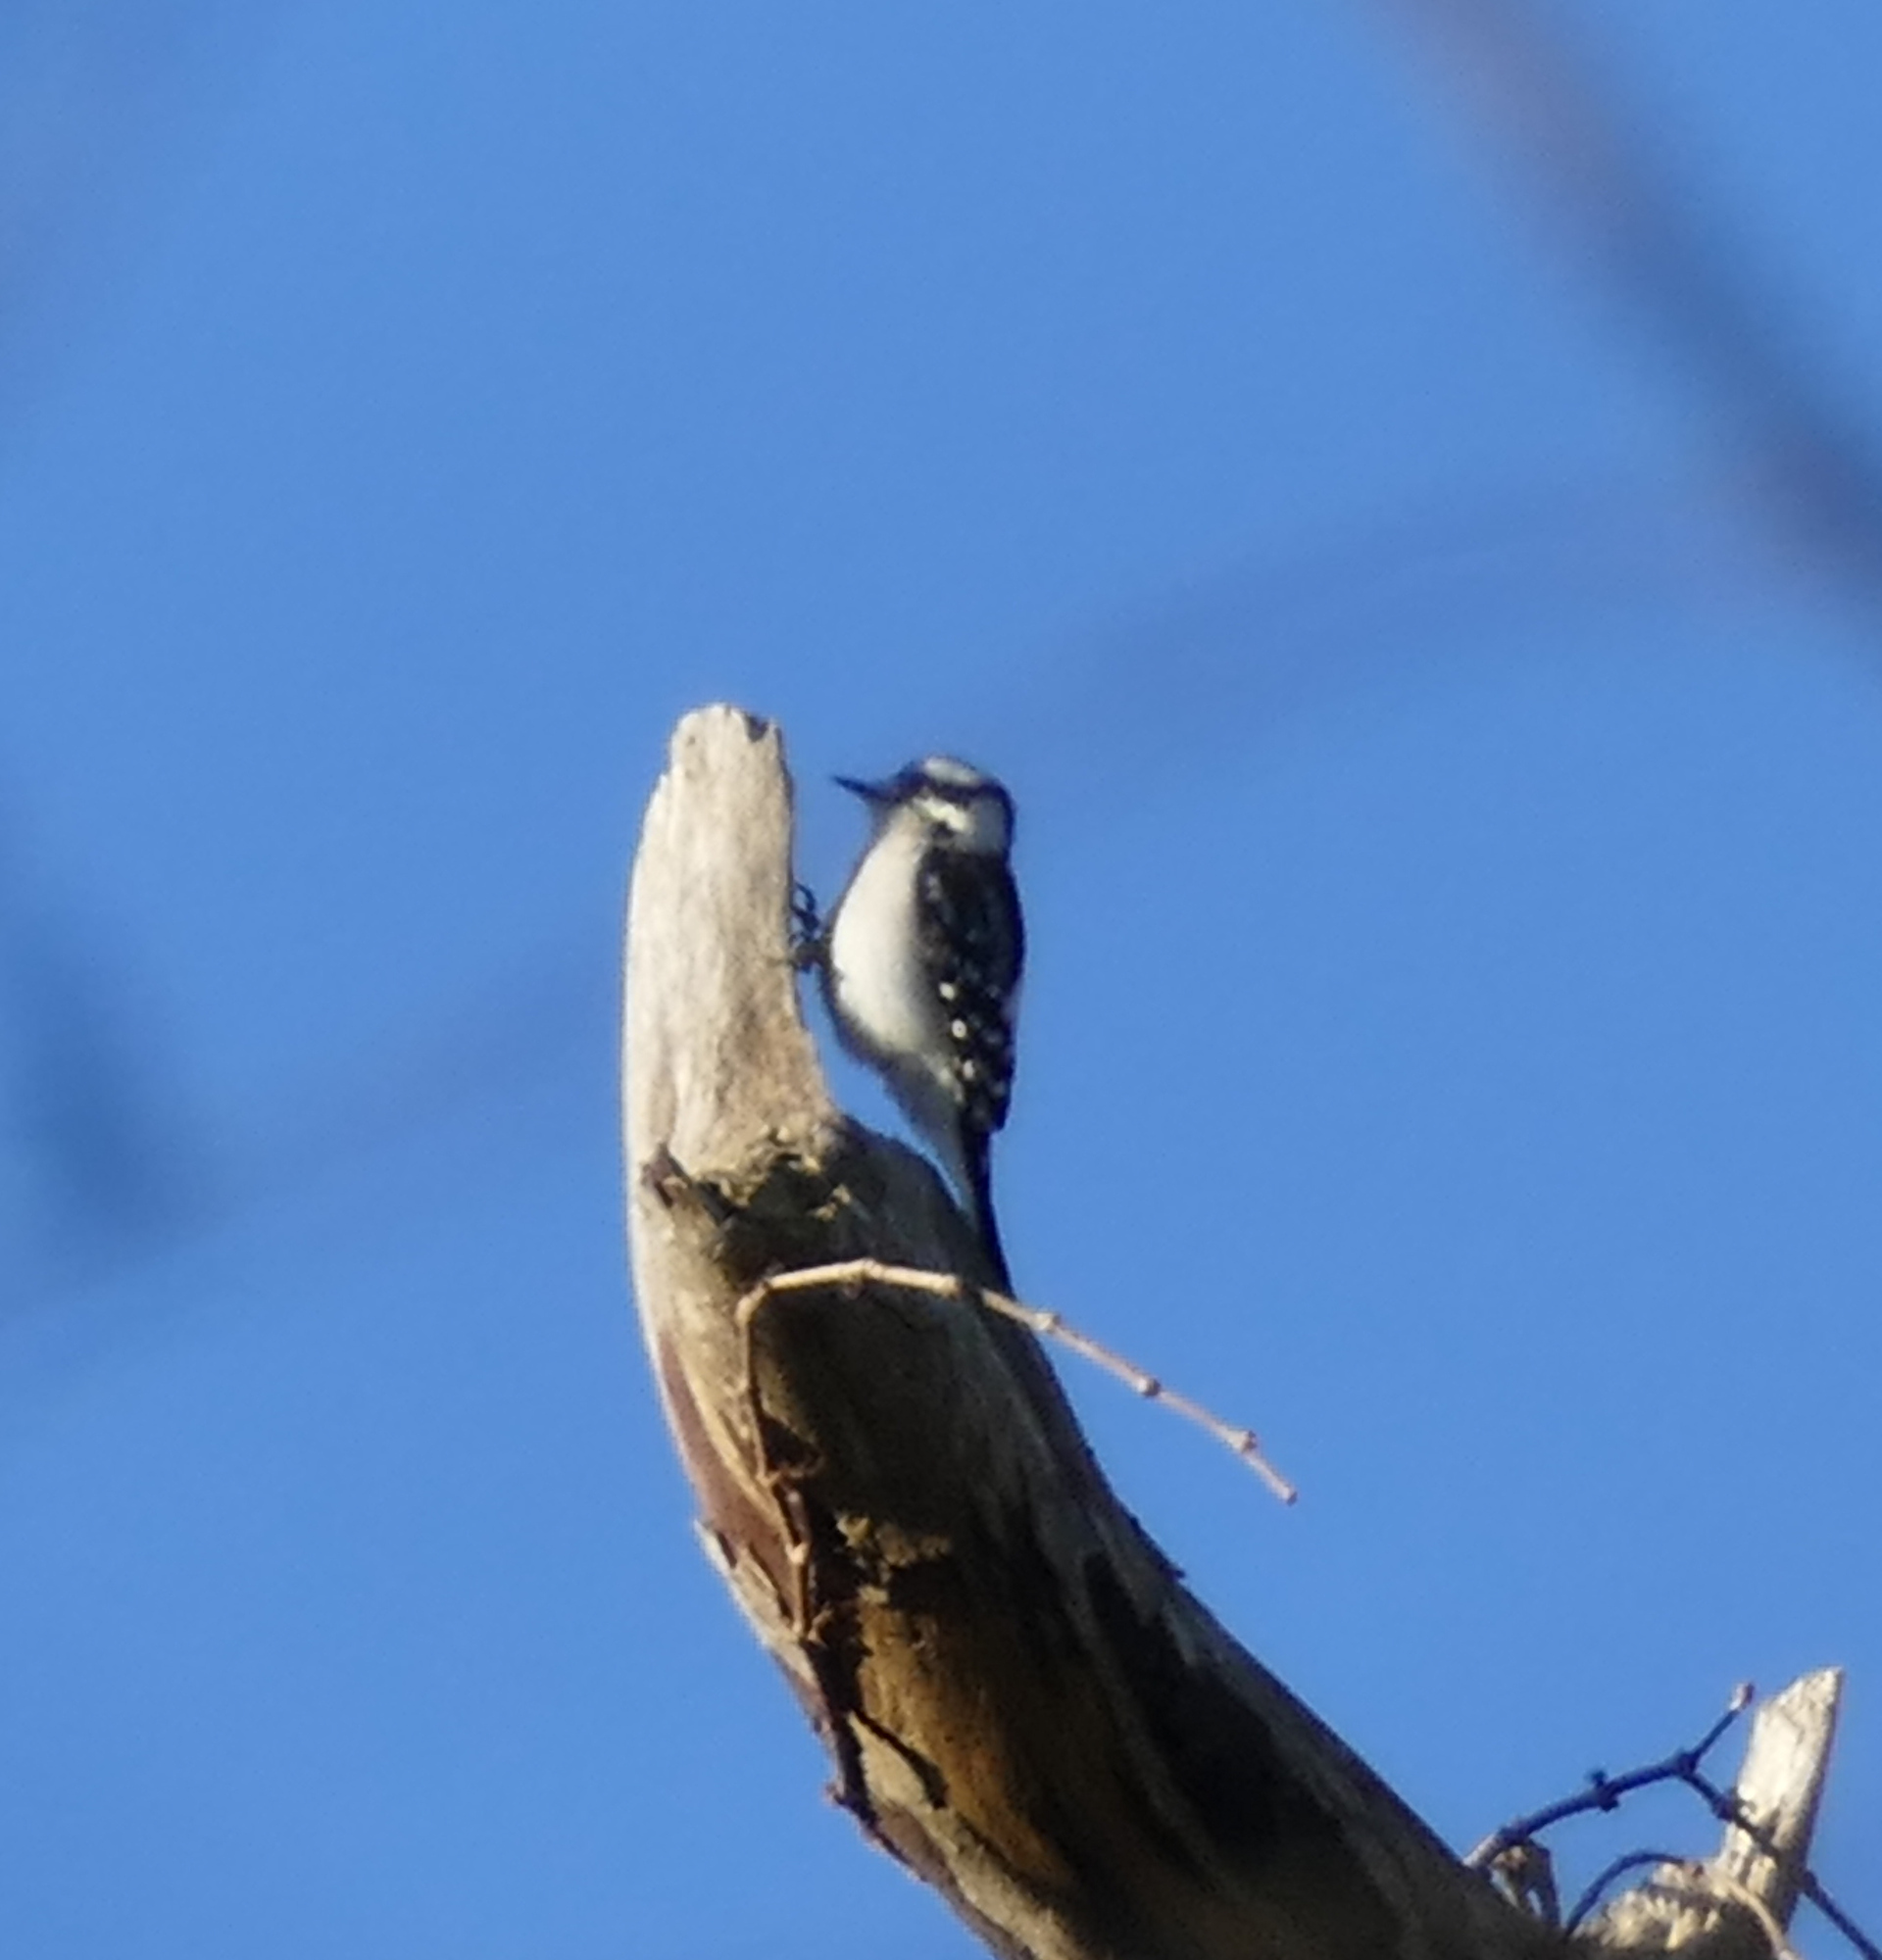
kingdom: Animalia
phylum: Chordata
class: Aves
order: Piciformes
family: Picidae
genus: Dryobates
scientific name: Dryobates pubescens
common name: Downy woodpecker
